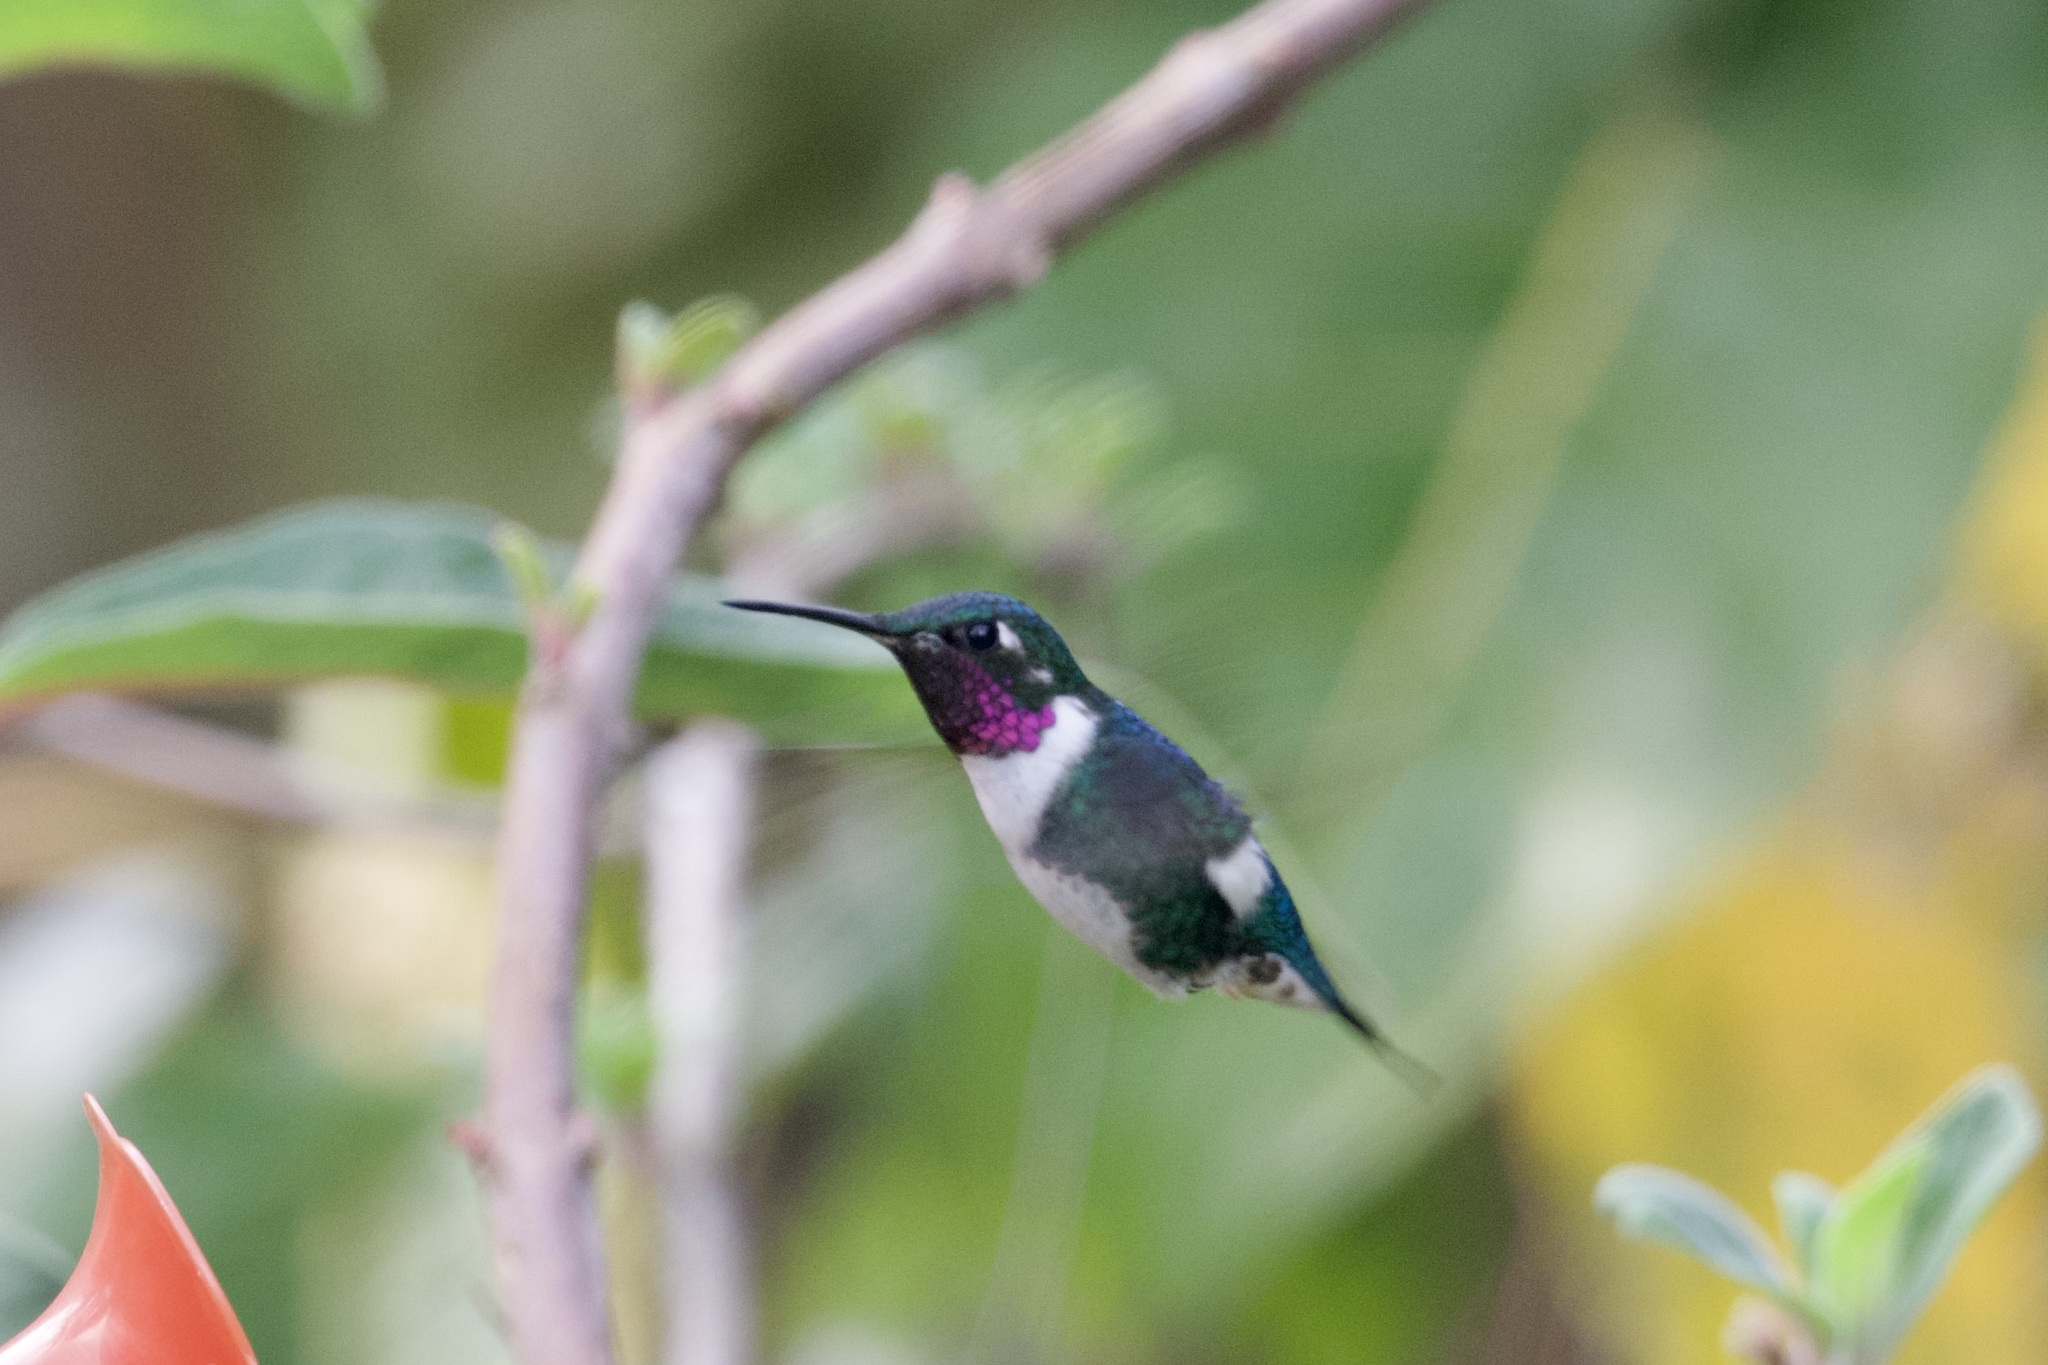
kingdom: Animalia
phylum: Chordata
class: Aves
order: Apodiformes
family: Trochilidae
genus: Chaetocercus
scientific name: Chaetocercus mulsant
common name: White-bellied woodstar
